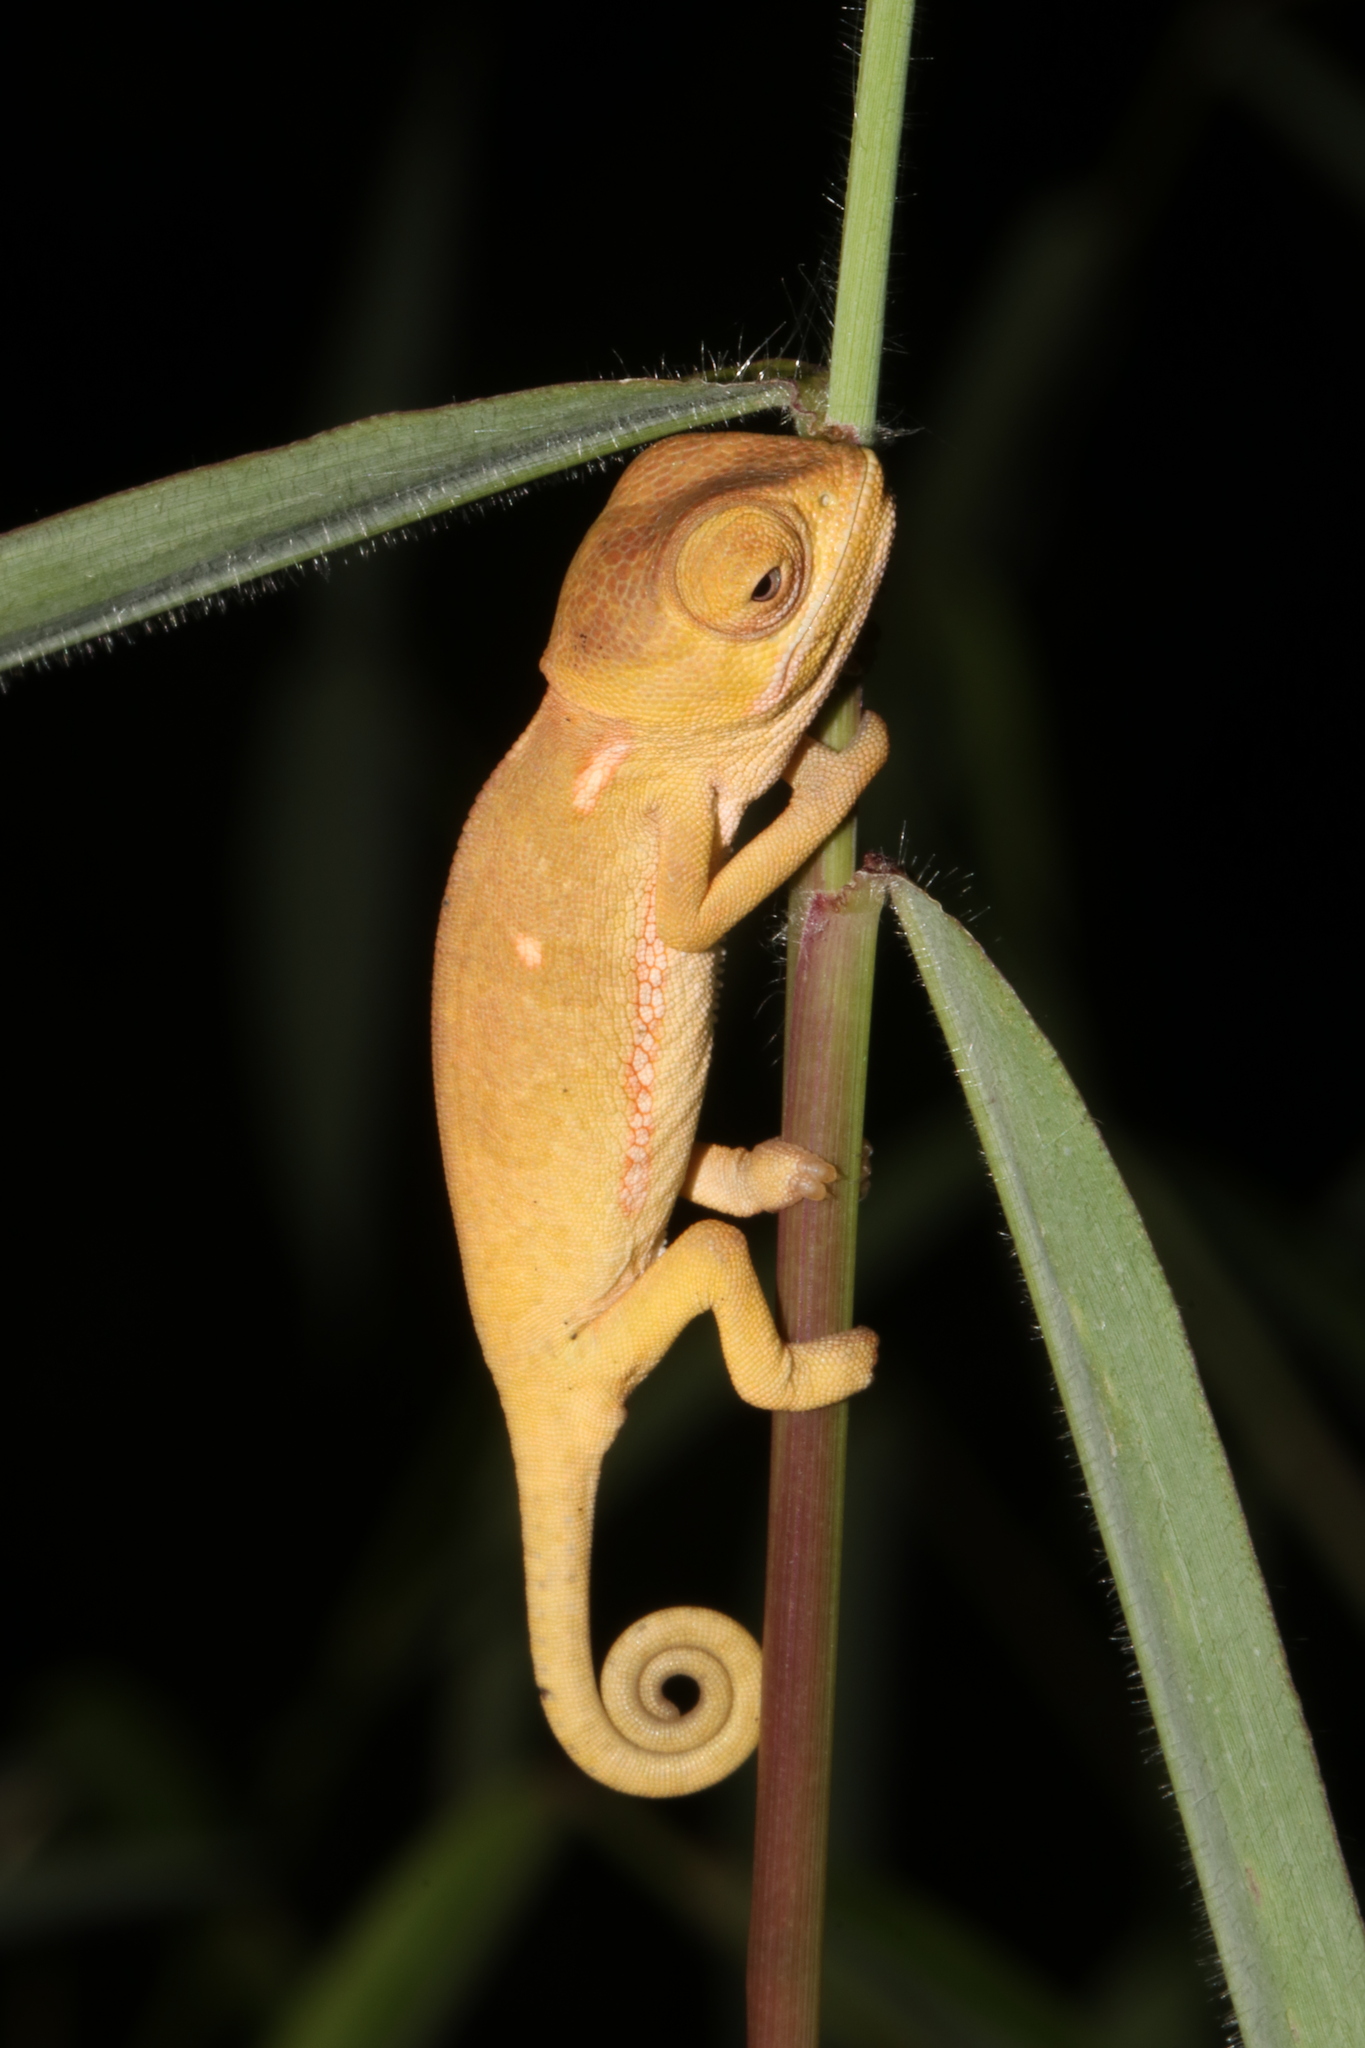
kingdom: Animalia
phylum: Chordata
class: Squamata
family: Chamaeleonidae
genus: Chamaeleo
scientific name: Chamaeleo dilepis
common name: Flapneck chameleon
